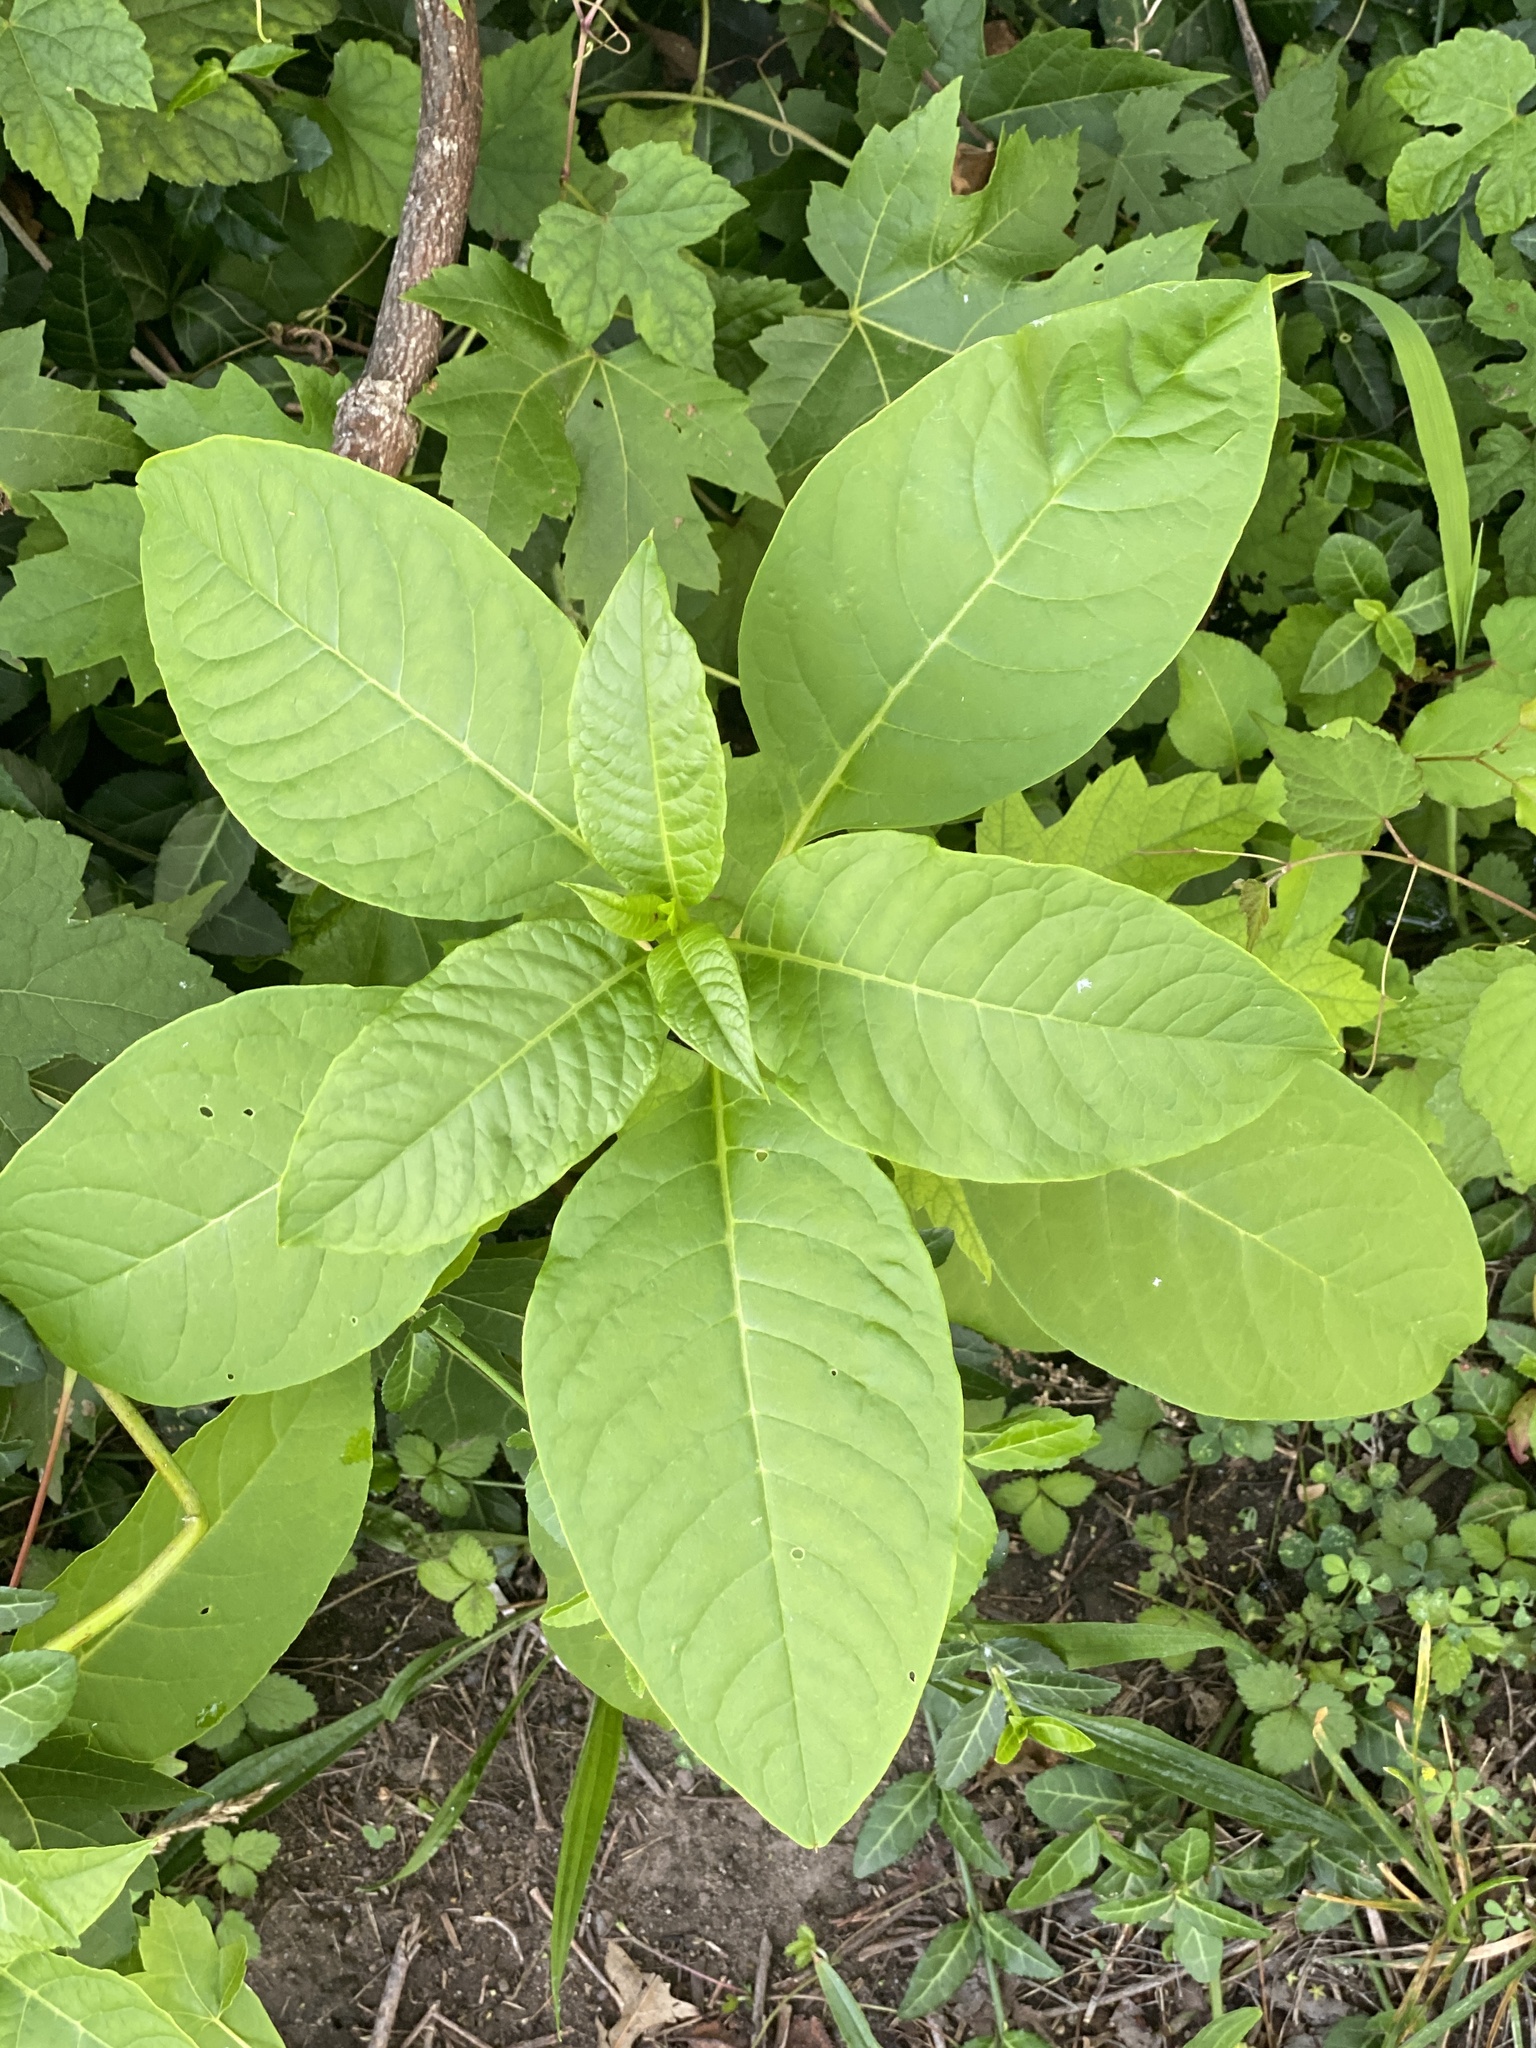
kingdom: Plantae
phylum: Tracheophyta
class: Magnoliopsida
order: Caryophyllales
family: Phytolaccaceae
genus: Phytolacca
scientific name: Phytolacca americana
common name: American pokeweed
